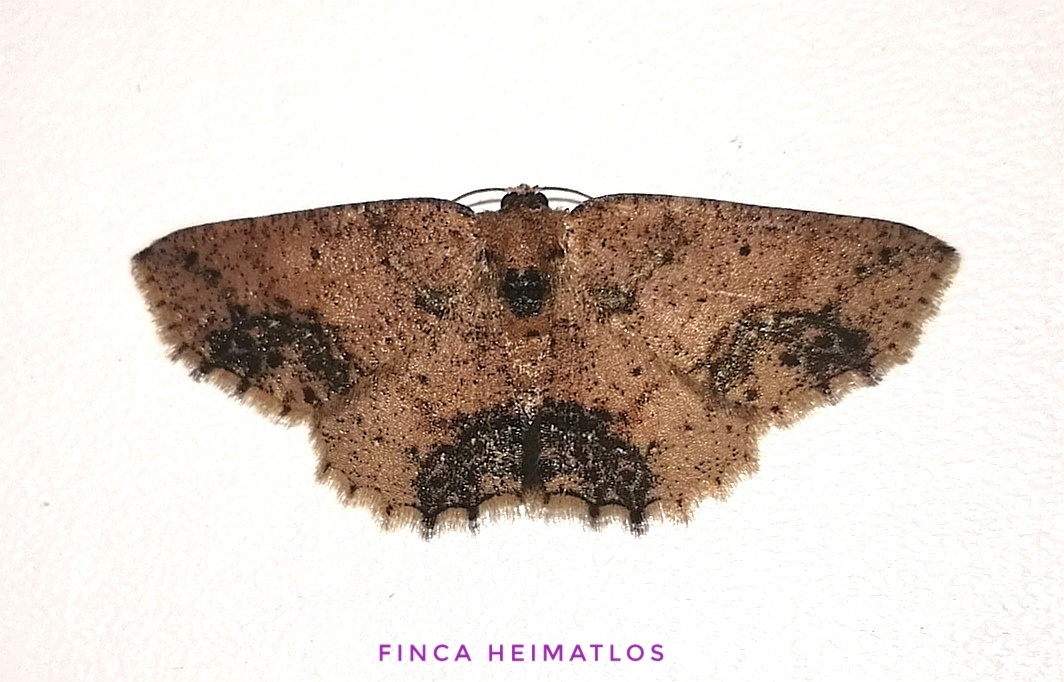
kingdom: Animalia
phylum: Arthropoda
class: Insecta
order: Lepidoptera
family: Geometridae
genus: Isochromodes
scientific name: Isochromodes atristicta
